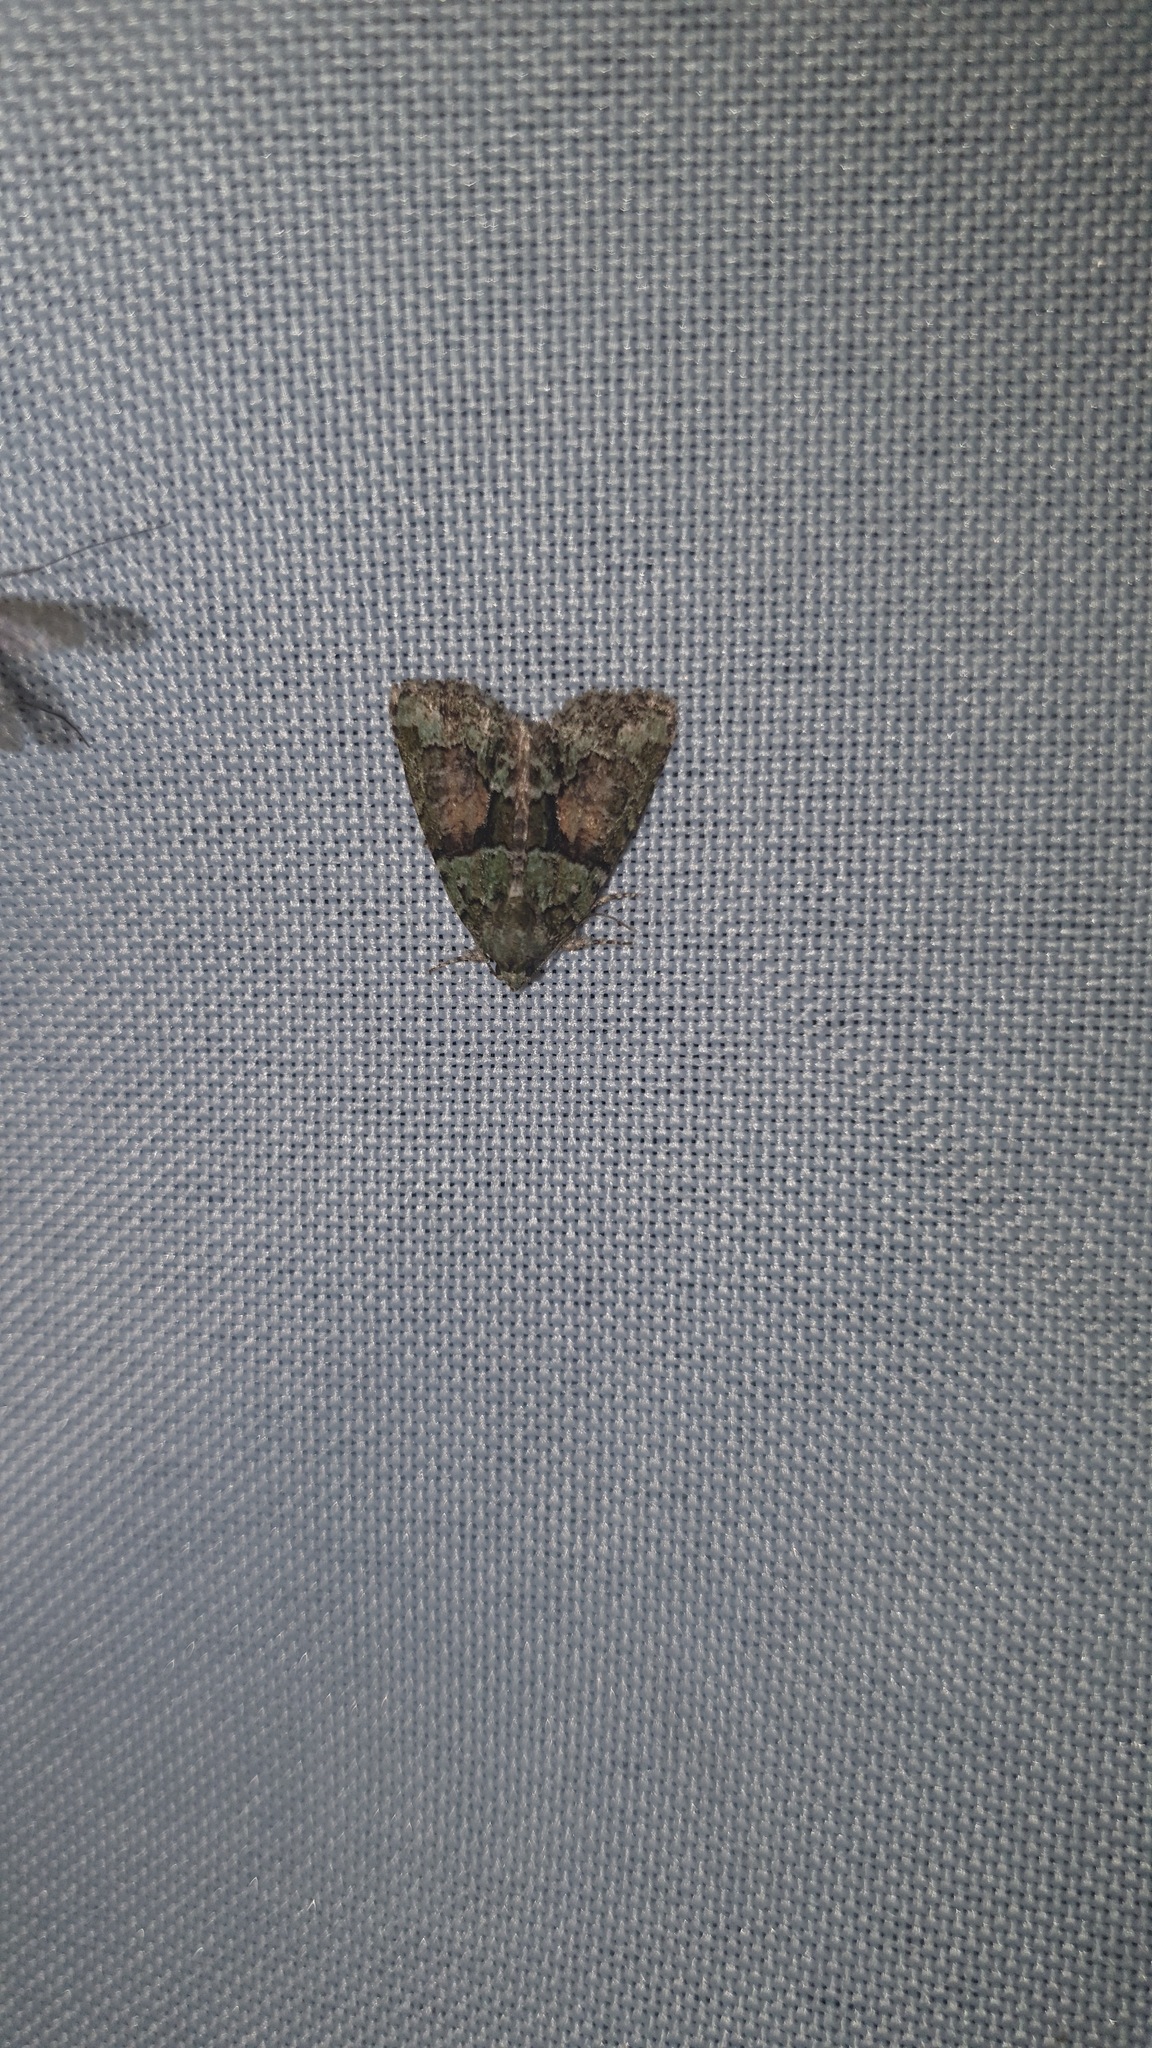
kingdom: Animalia
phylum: Arthropoda
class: Insecta
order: Lepidoptera
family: Noctuidae
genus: Cryphia
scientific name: Cryphia algae
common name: Tree-lichen beauty
